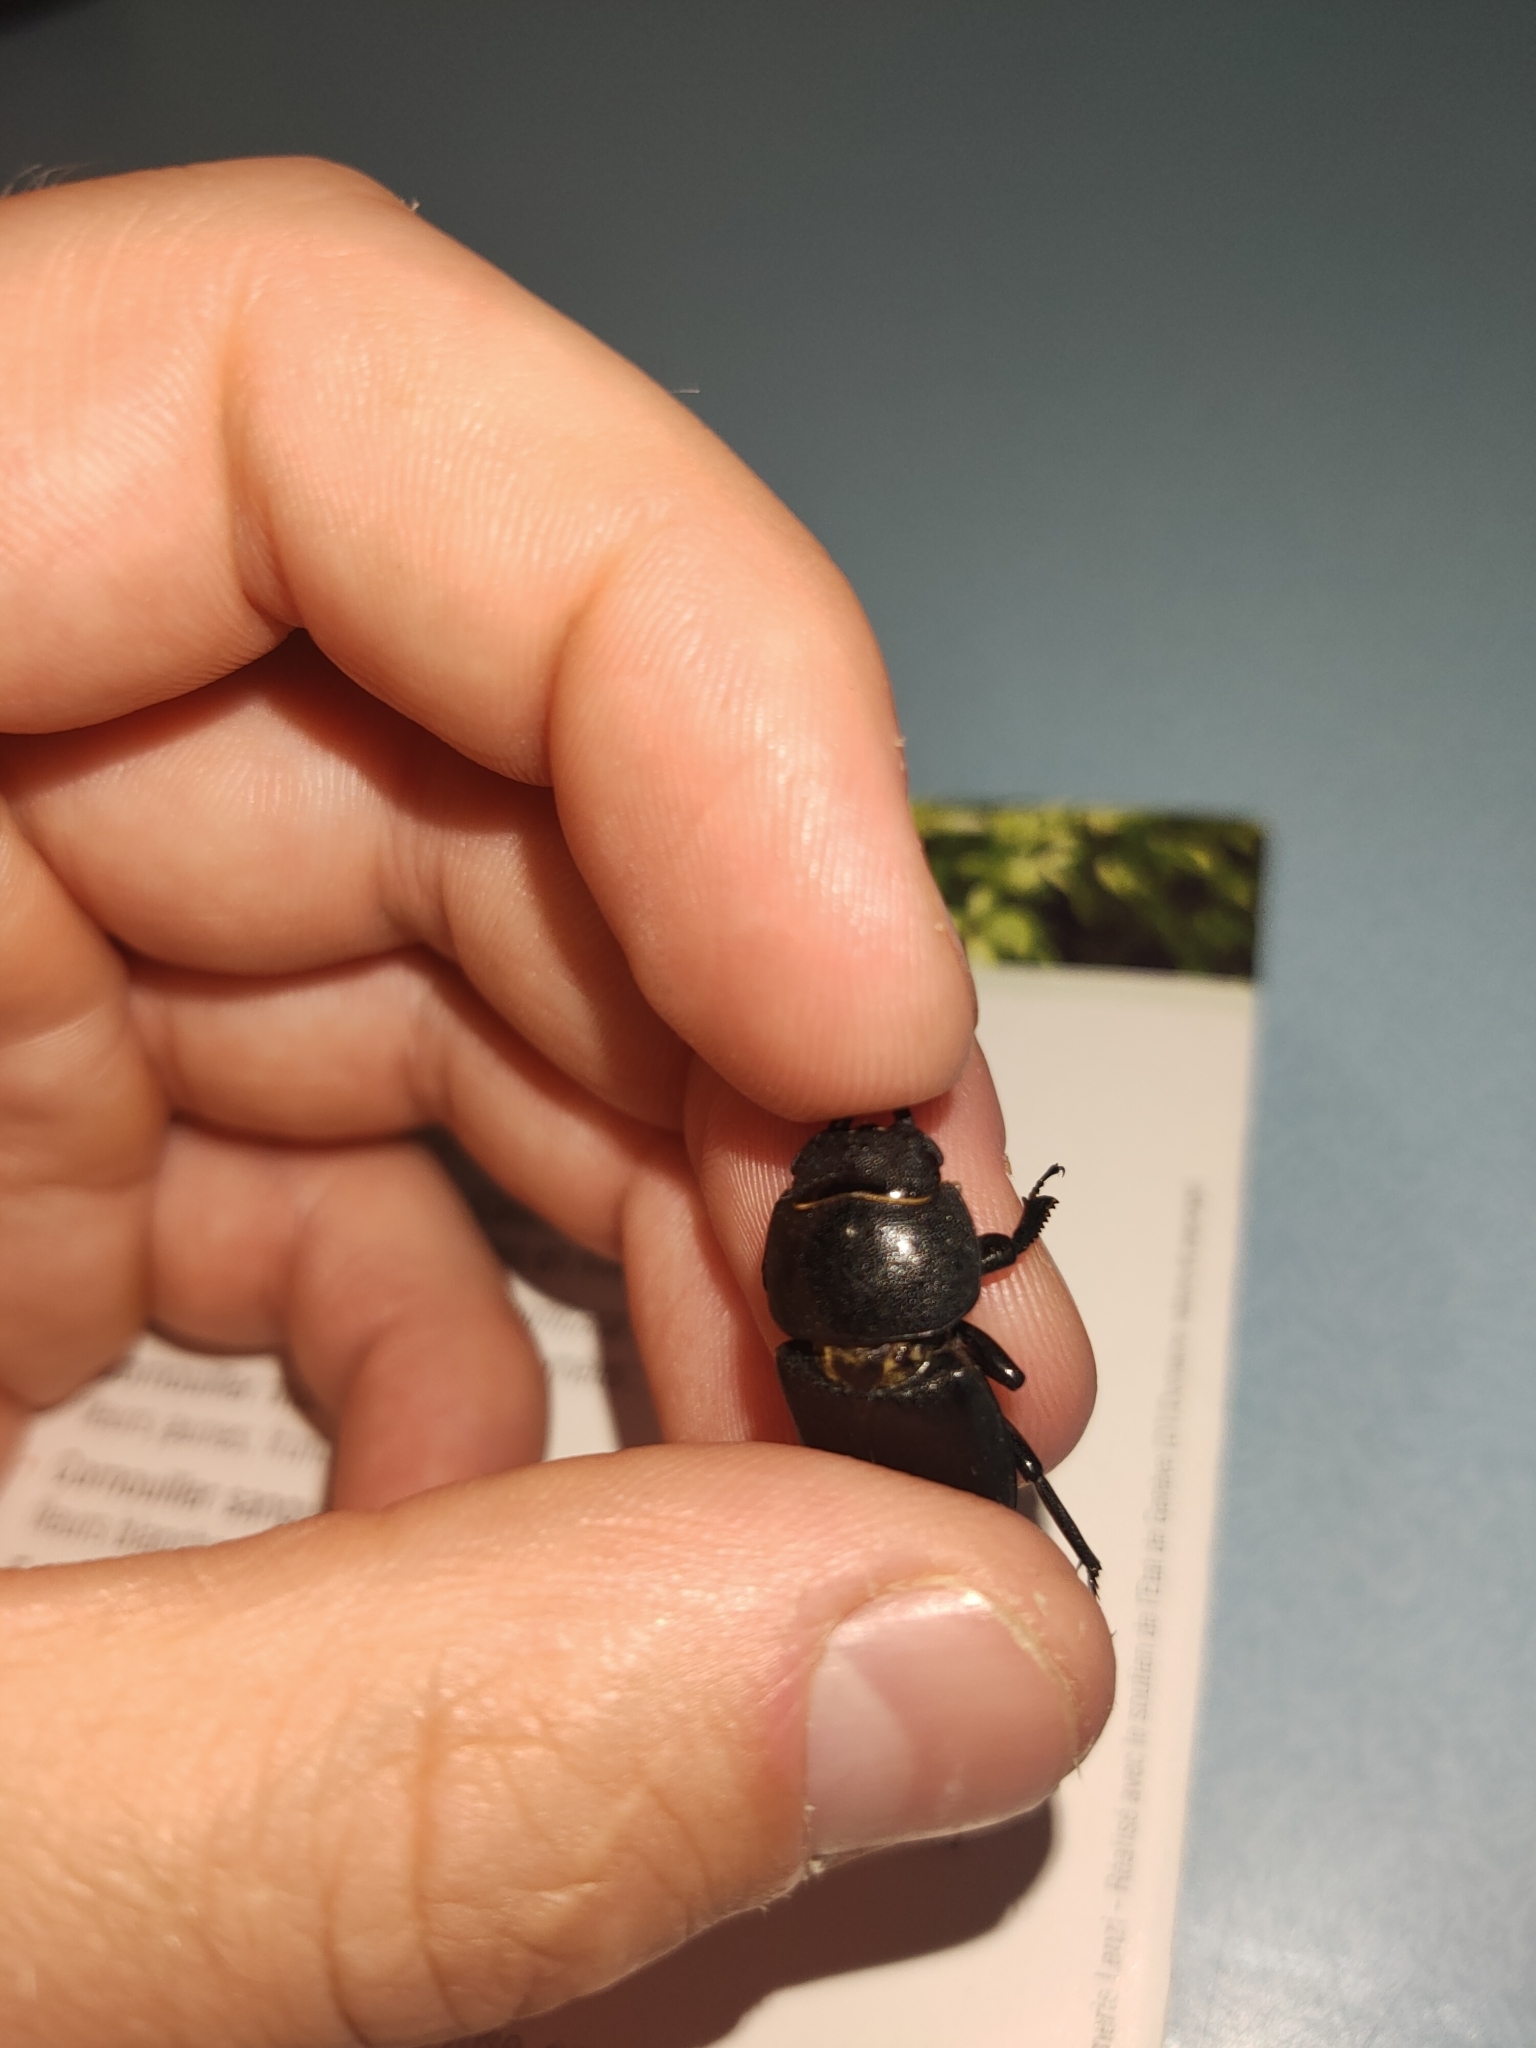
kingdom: Animalia
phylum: Arthropoda
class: Insecta
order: Coleoptera
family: Lucanidae
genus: Dorcus
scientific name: Dorcus parallelipipedus
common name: Lesser stag beetle
